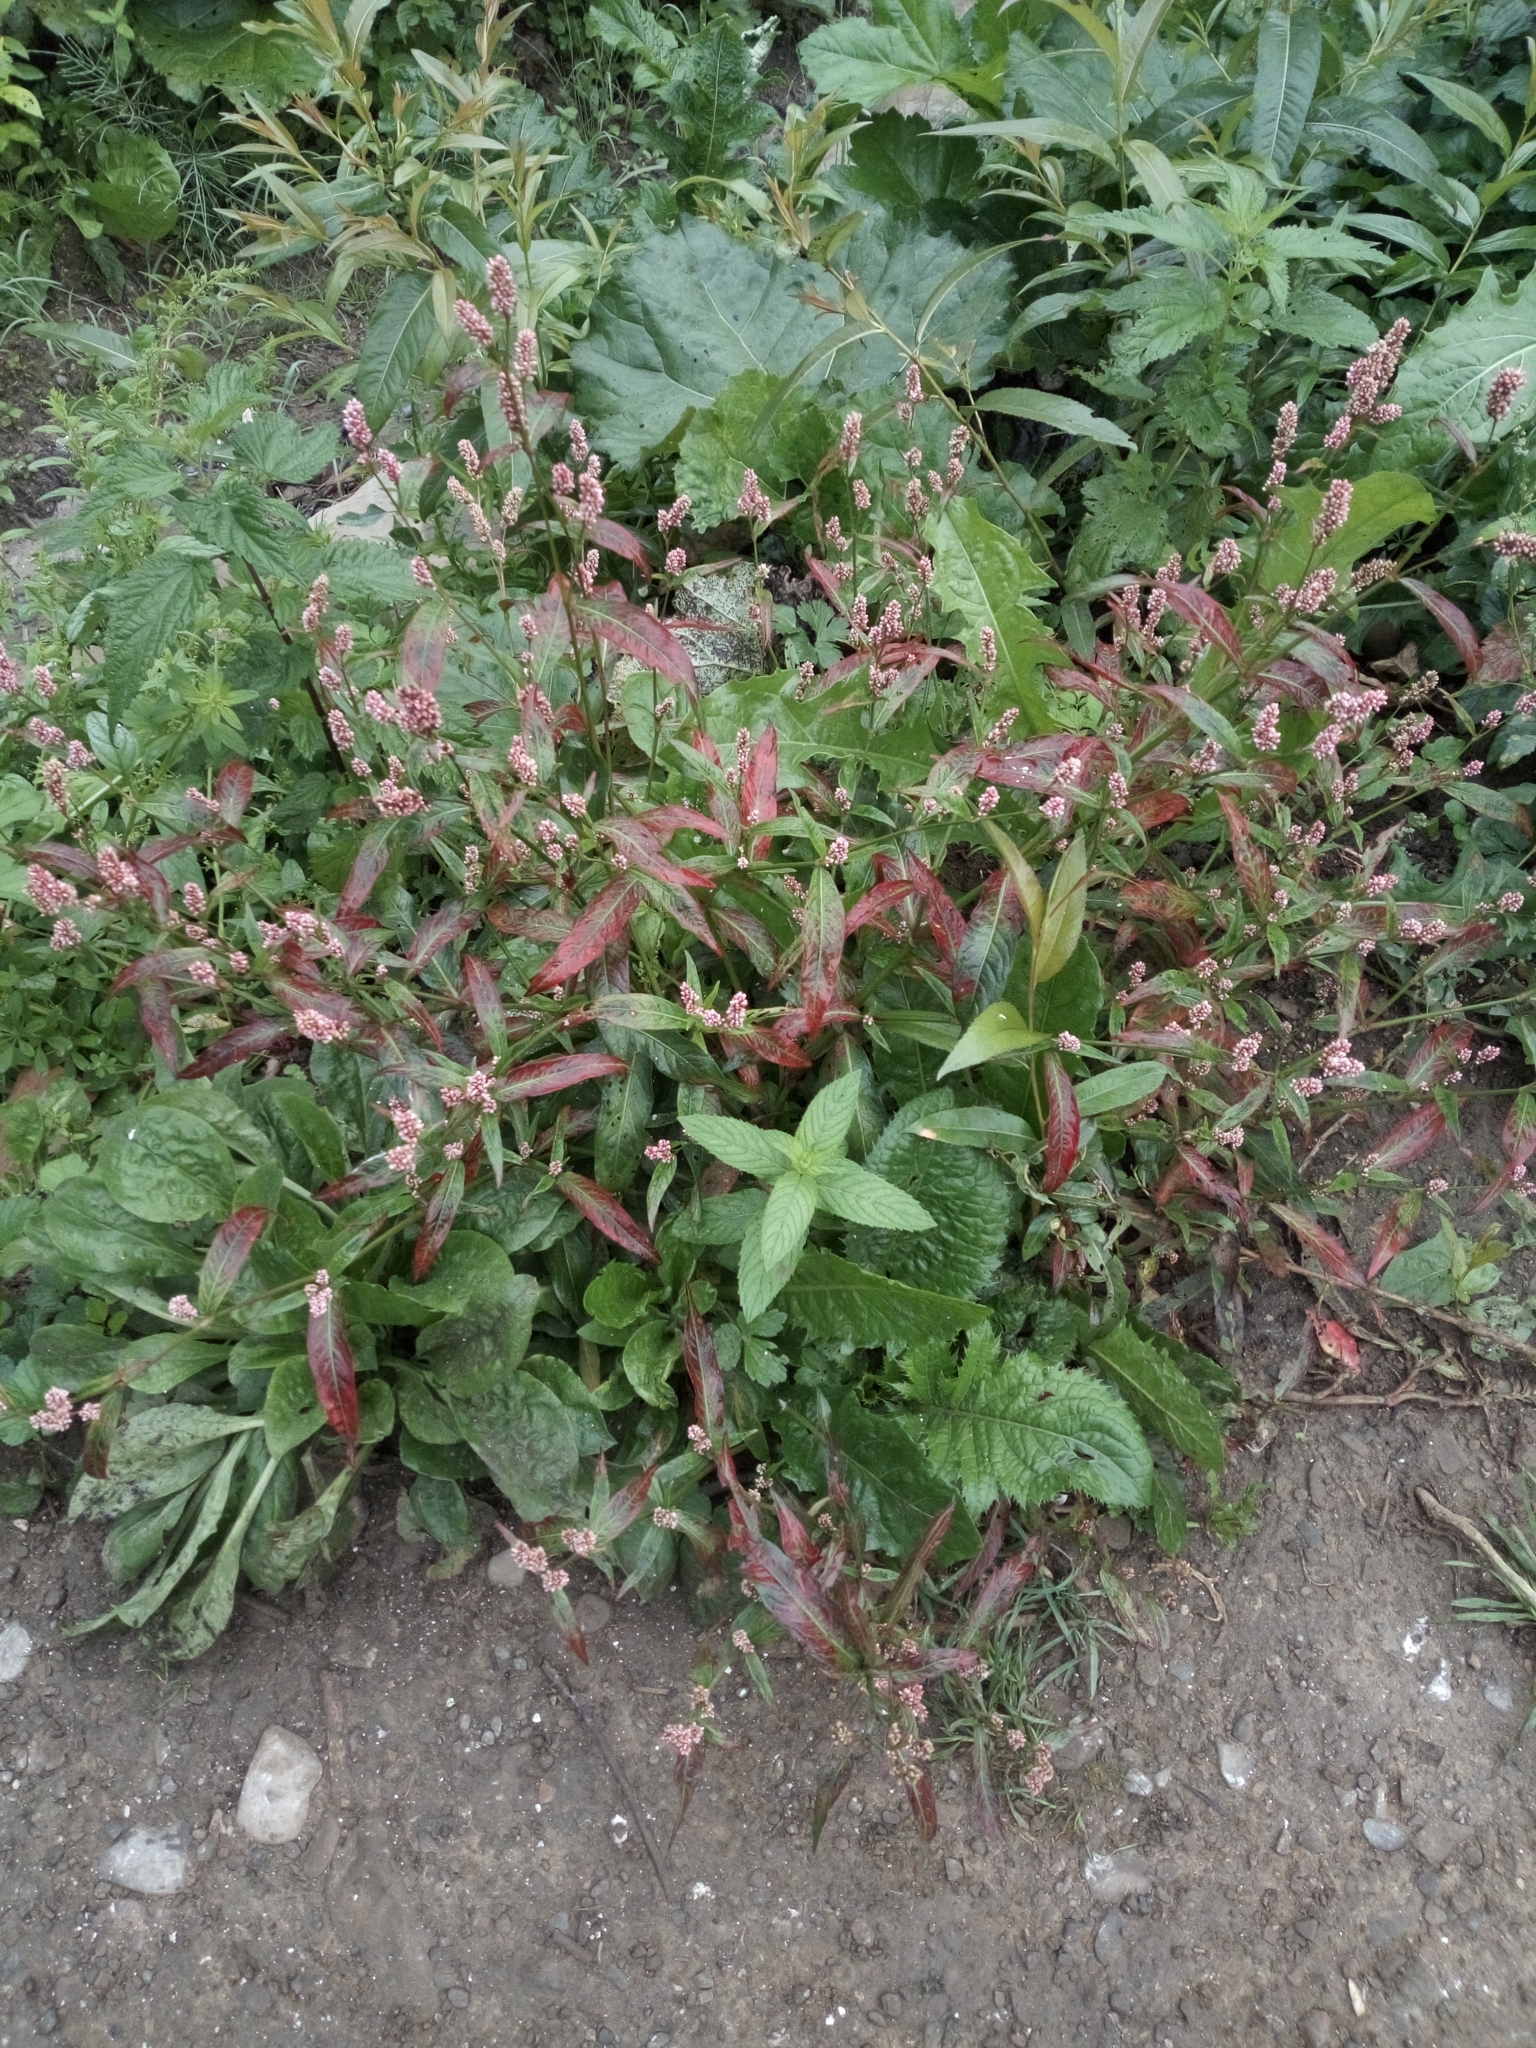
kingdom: Plantae
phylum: Tracheophyta
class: Magnoliopsida
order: Caryophyllales
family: Polygonaceae
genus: Persicaria
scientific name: Persicaria maculosa
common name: Redshank
